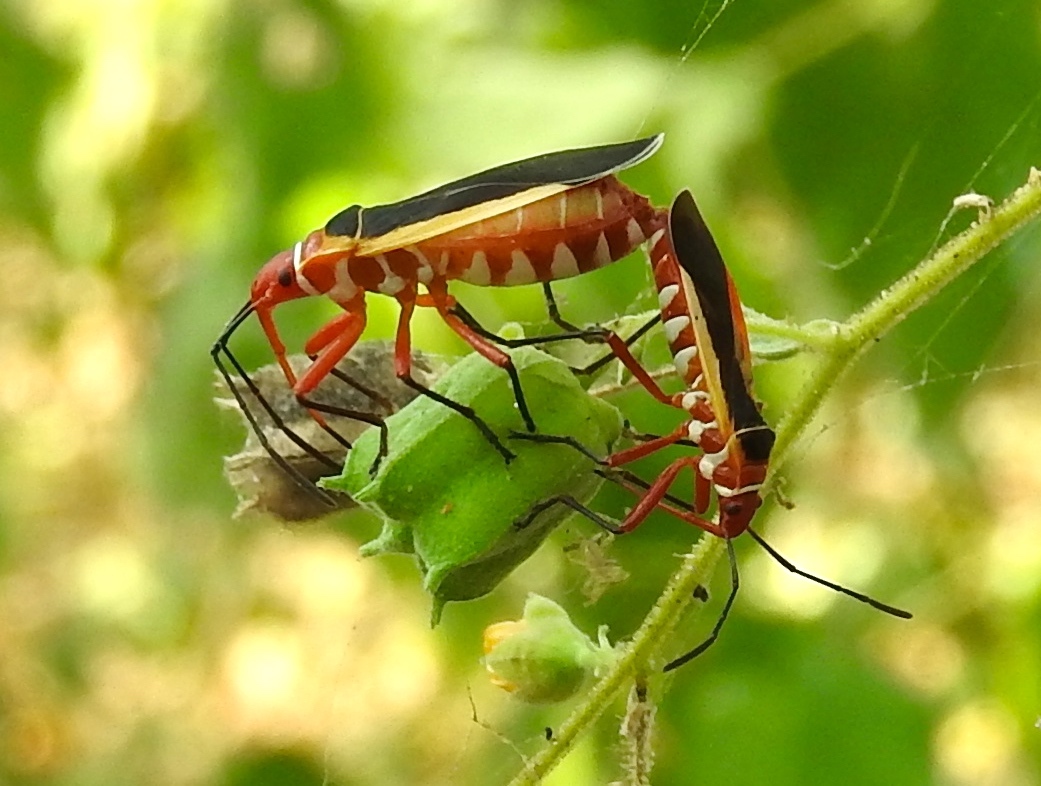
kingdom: Animalia
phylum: Arthropoda
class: Insecta
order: Hemiptera
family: Pyrrhocoridae
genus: Dysdercus
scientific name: Dysdercus
